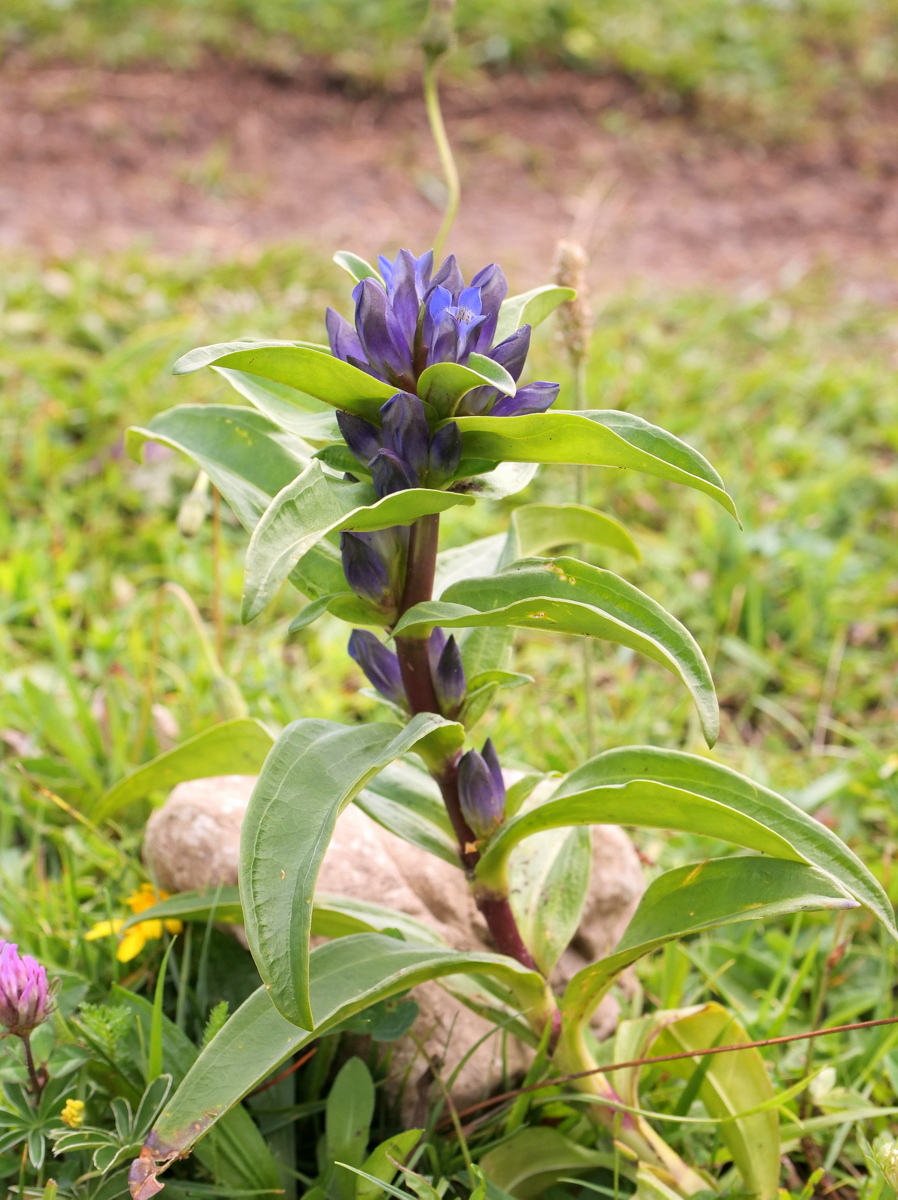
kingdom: Plantae
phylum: Tracheophyta
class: Magnoliopsida
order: Gentianales
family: Gentianaceae
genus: Gentiana
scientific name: Gentiana cruciata
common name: Cross gentian
